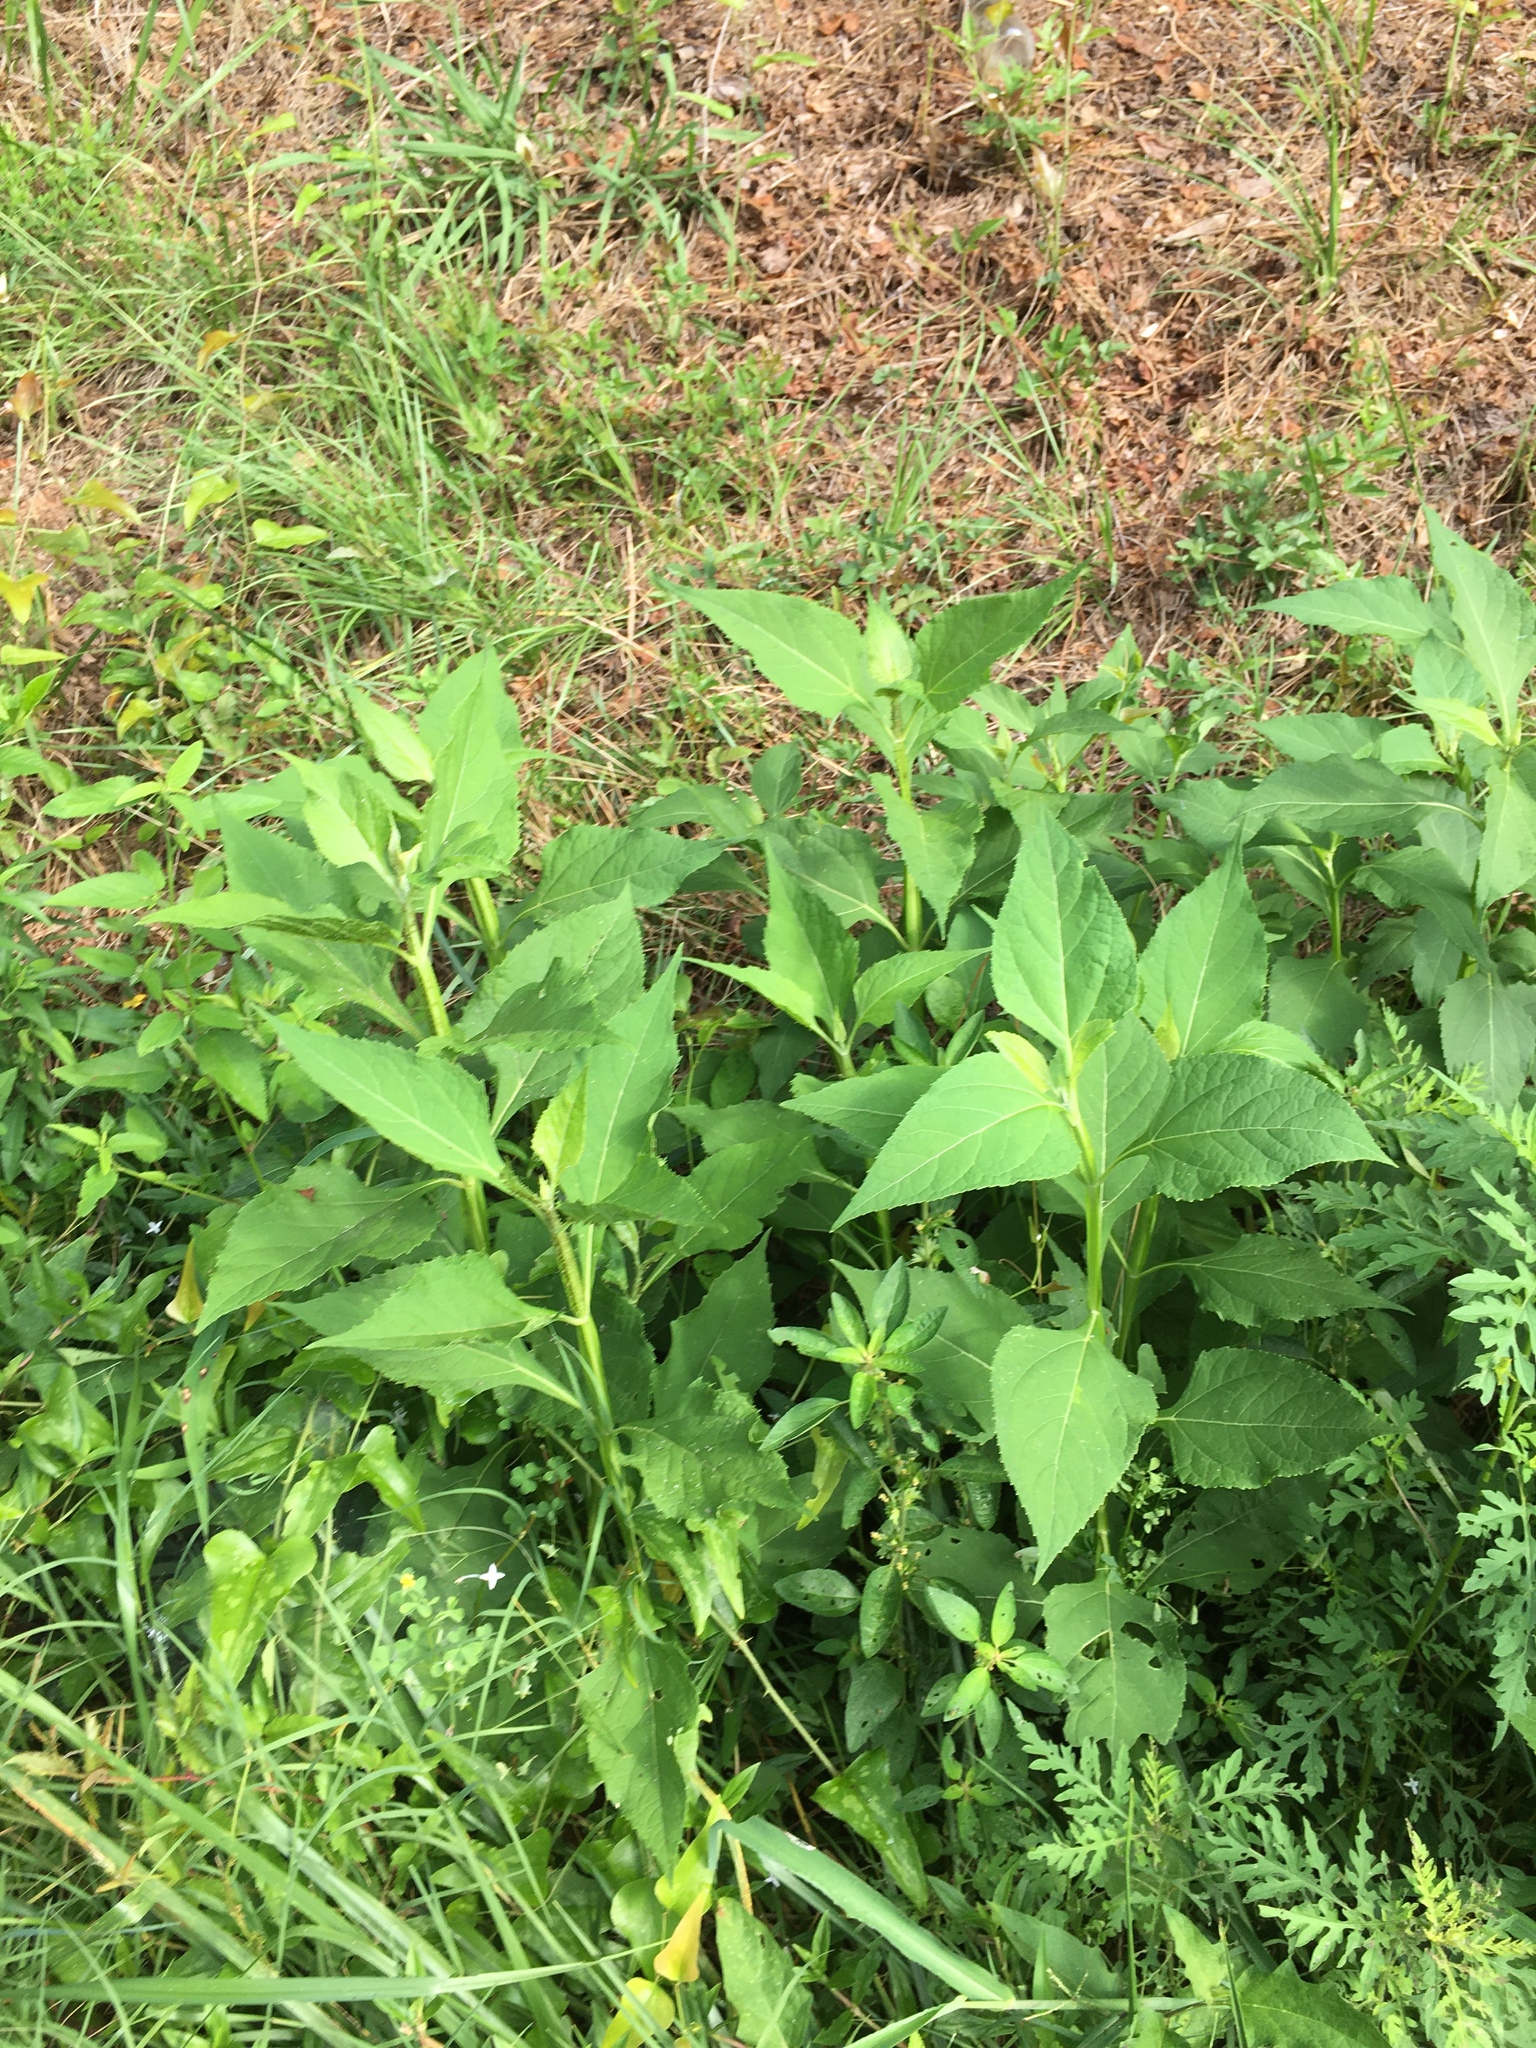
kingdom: Plantae
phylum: Tracheophyta
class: Magnoliopsida
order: Asterales
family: Asteraceae
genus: Verbesina
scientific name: Verbesina occidentalis
